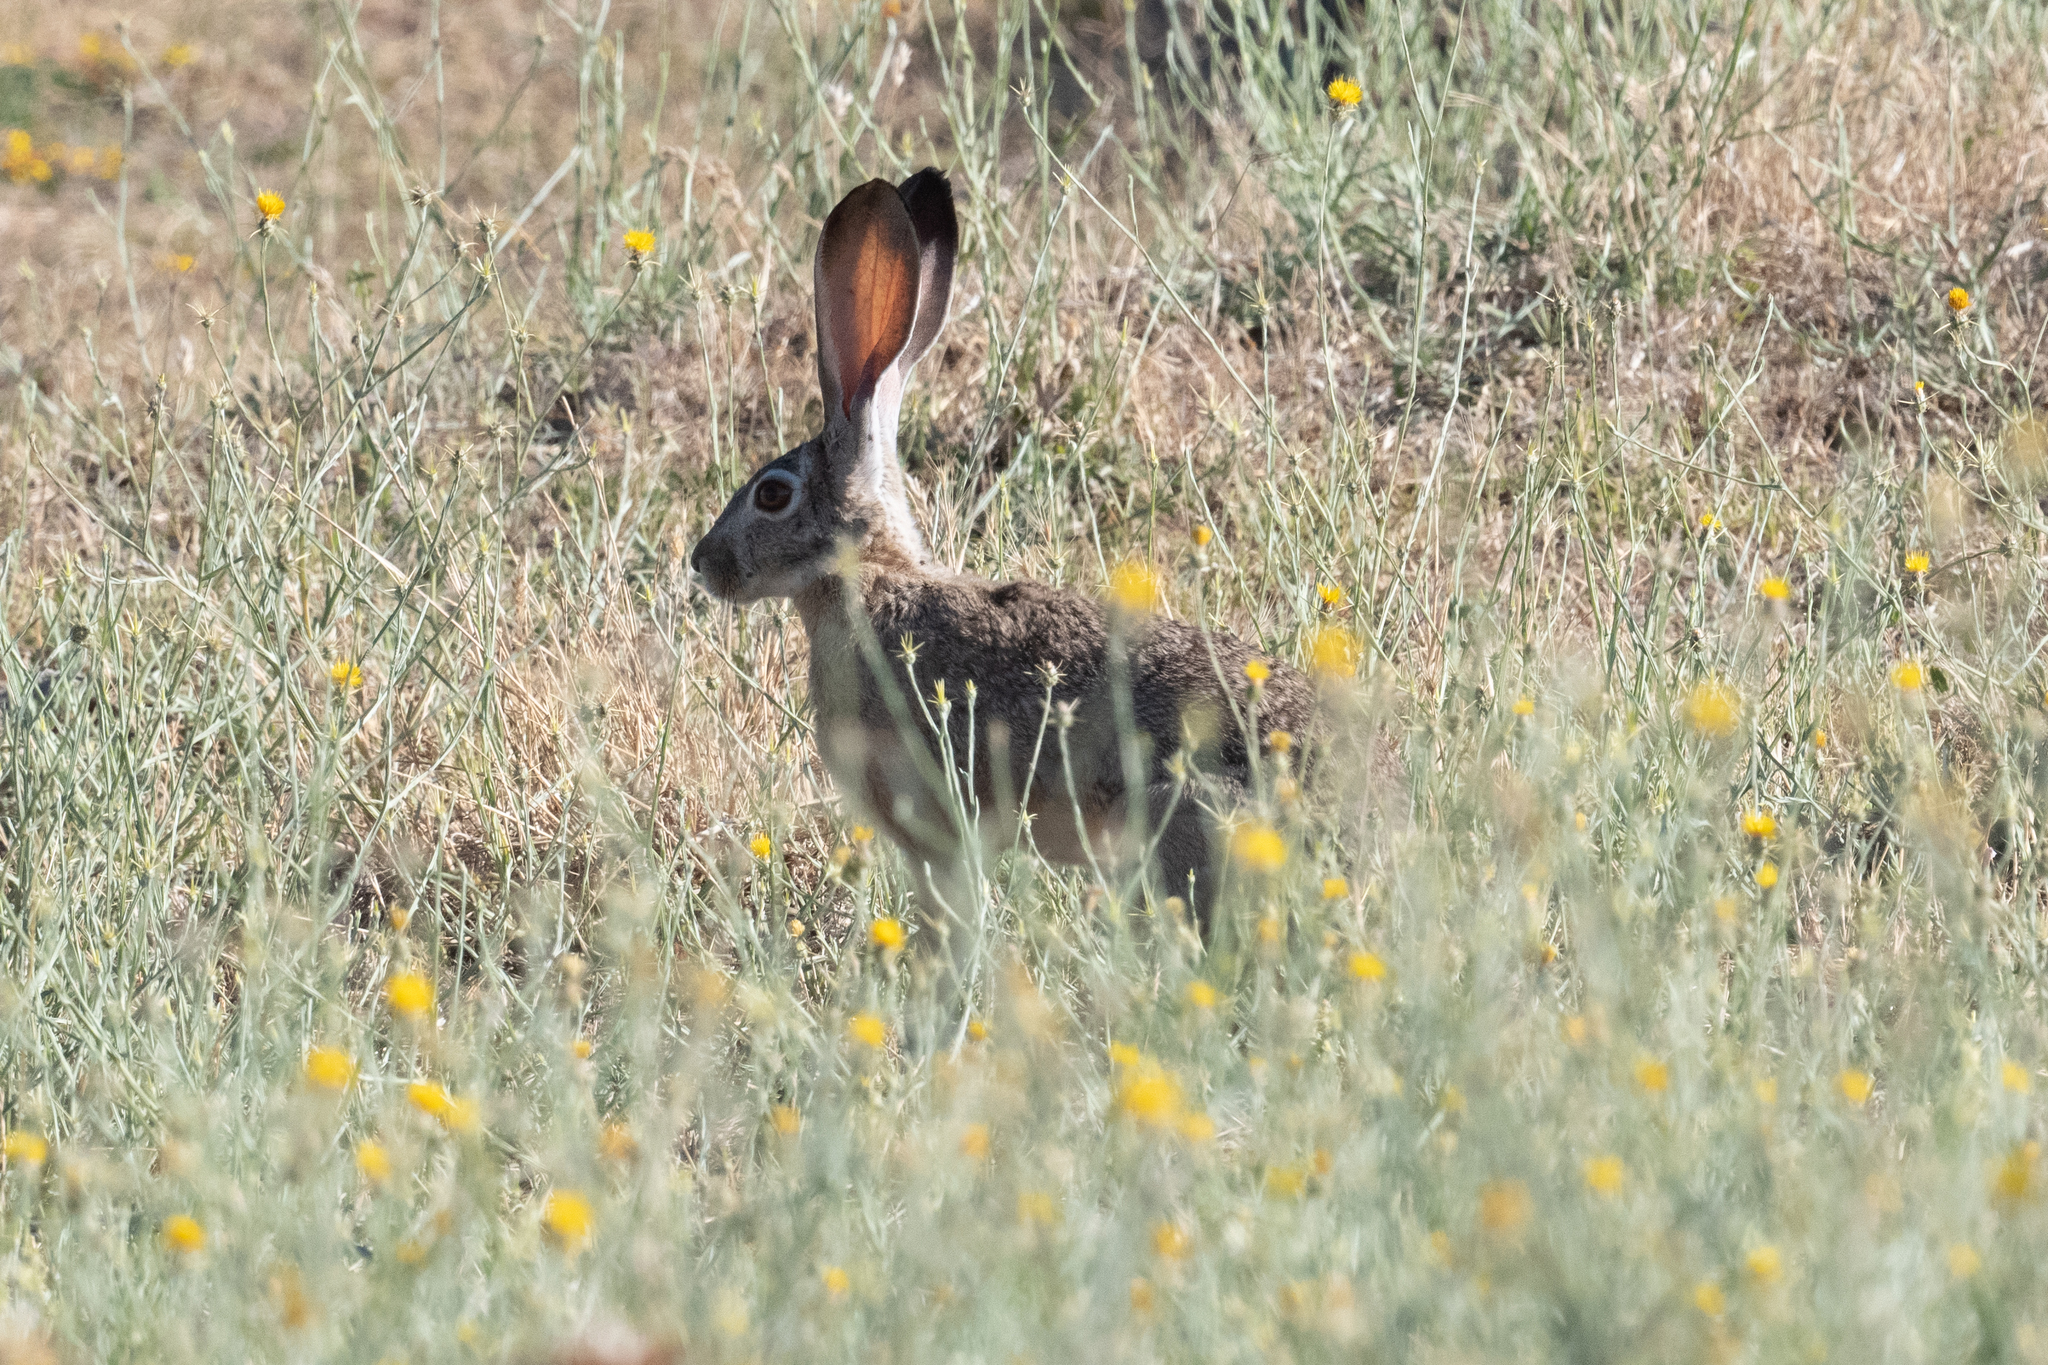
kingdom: Animalia
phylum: Chordata
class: Mammalia
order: Lagomorpha
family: Leporidae
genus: Lepus
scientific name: Lepus californicus
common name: Black-tailed jackrabbit
